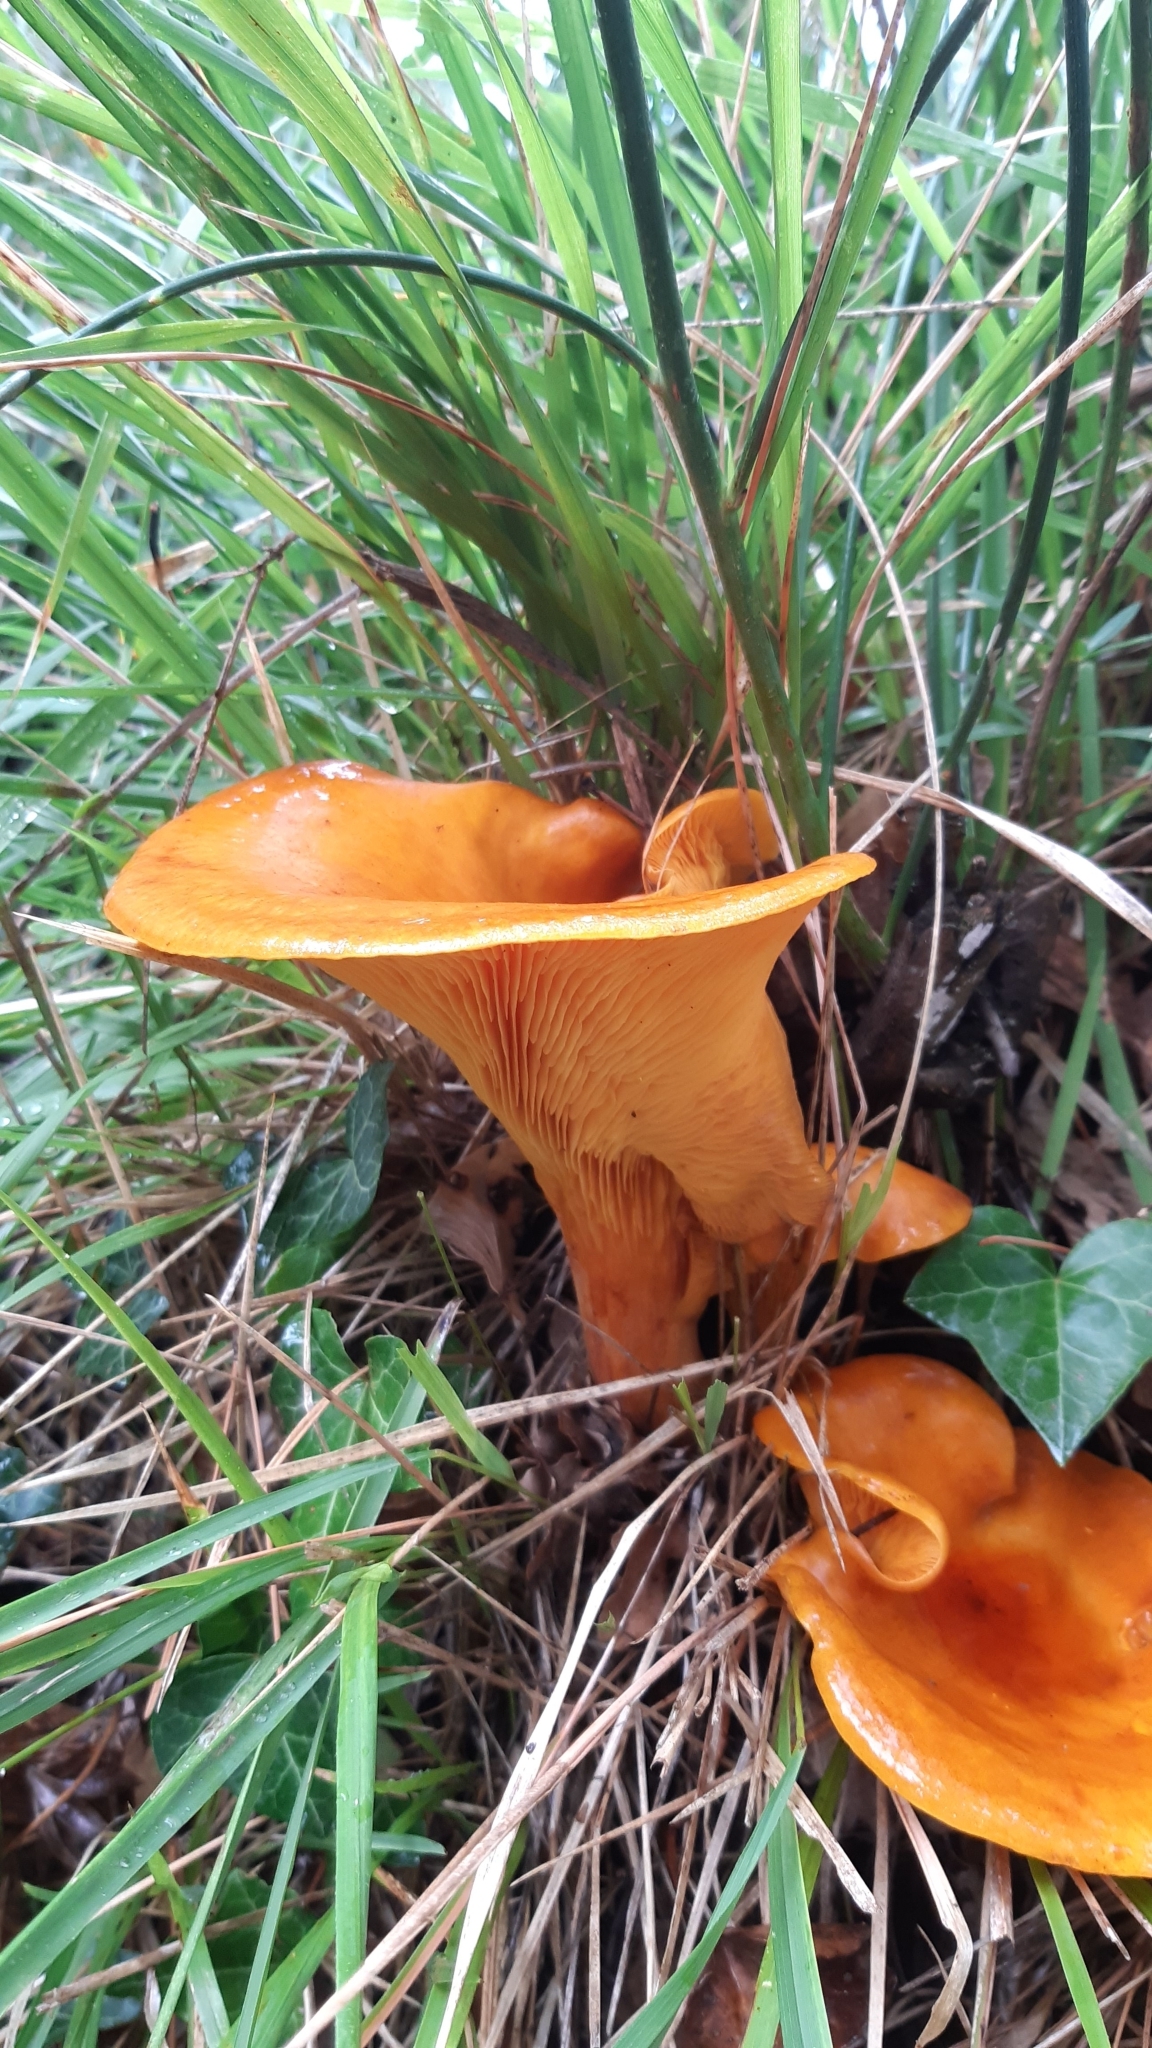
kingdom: Fungi
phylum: Basidiomycota
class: Agaricomycetes
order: Agaricales
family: Omphalotaceae
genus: Omphalotus
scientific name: Omphalotus olearius
